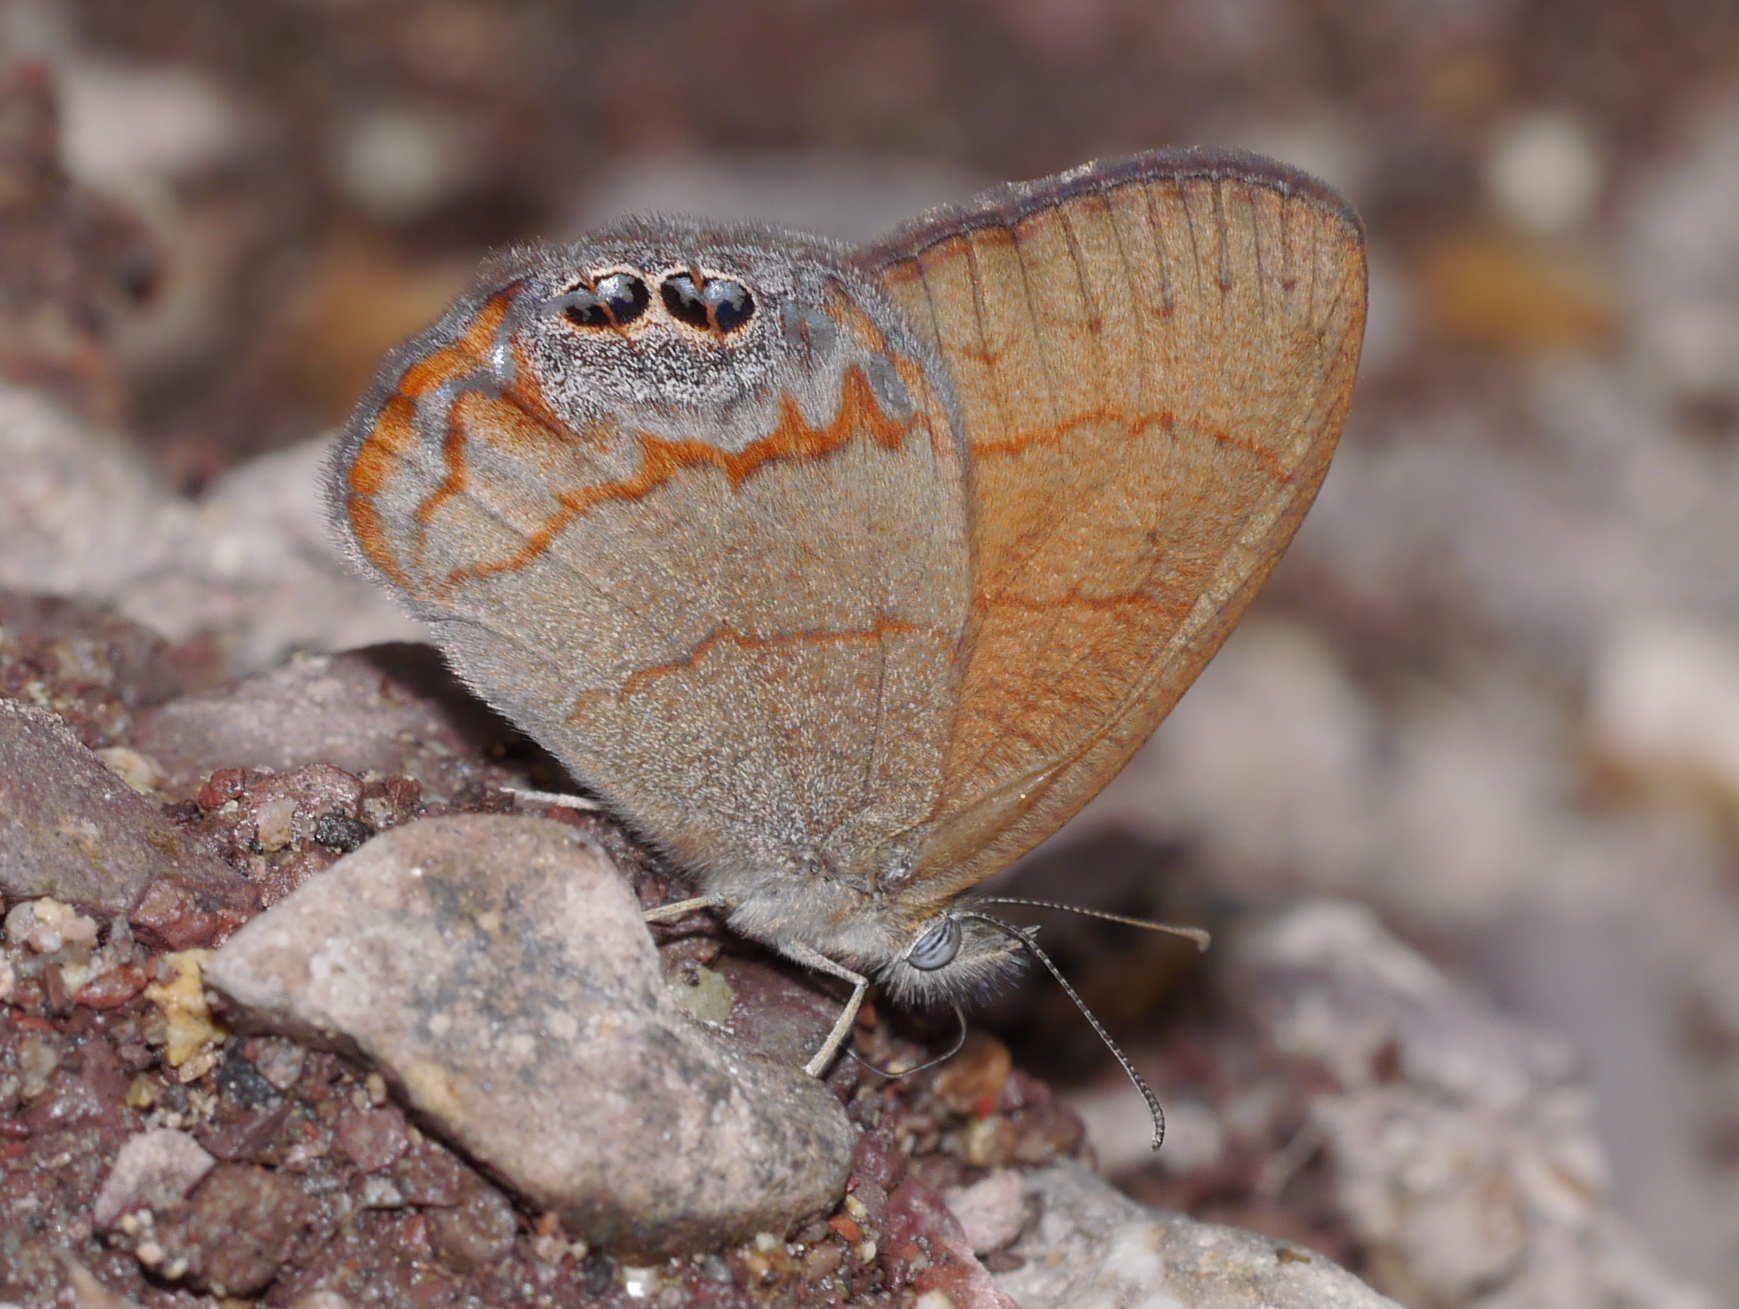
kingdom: Animalia
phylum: Arthropoda
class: Insecta
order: Lepidoptera
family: Nymphalidae
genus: Euptychia
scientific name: Euptychia pyracmon
